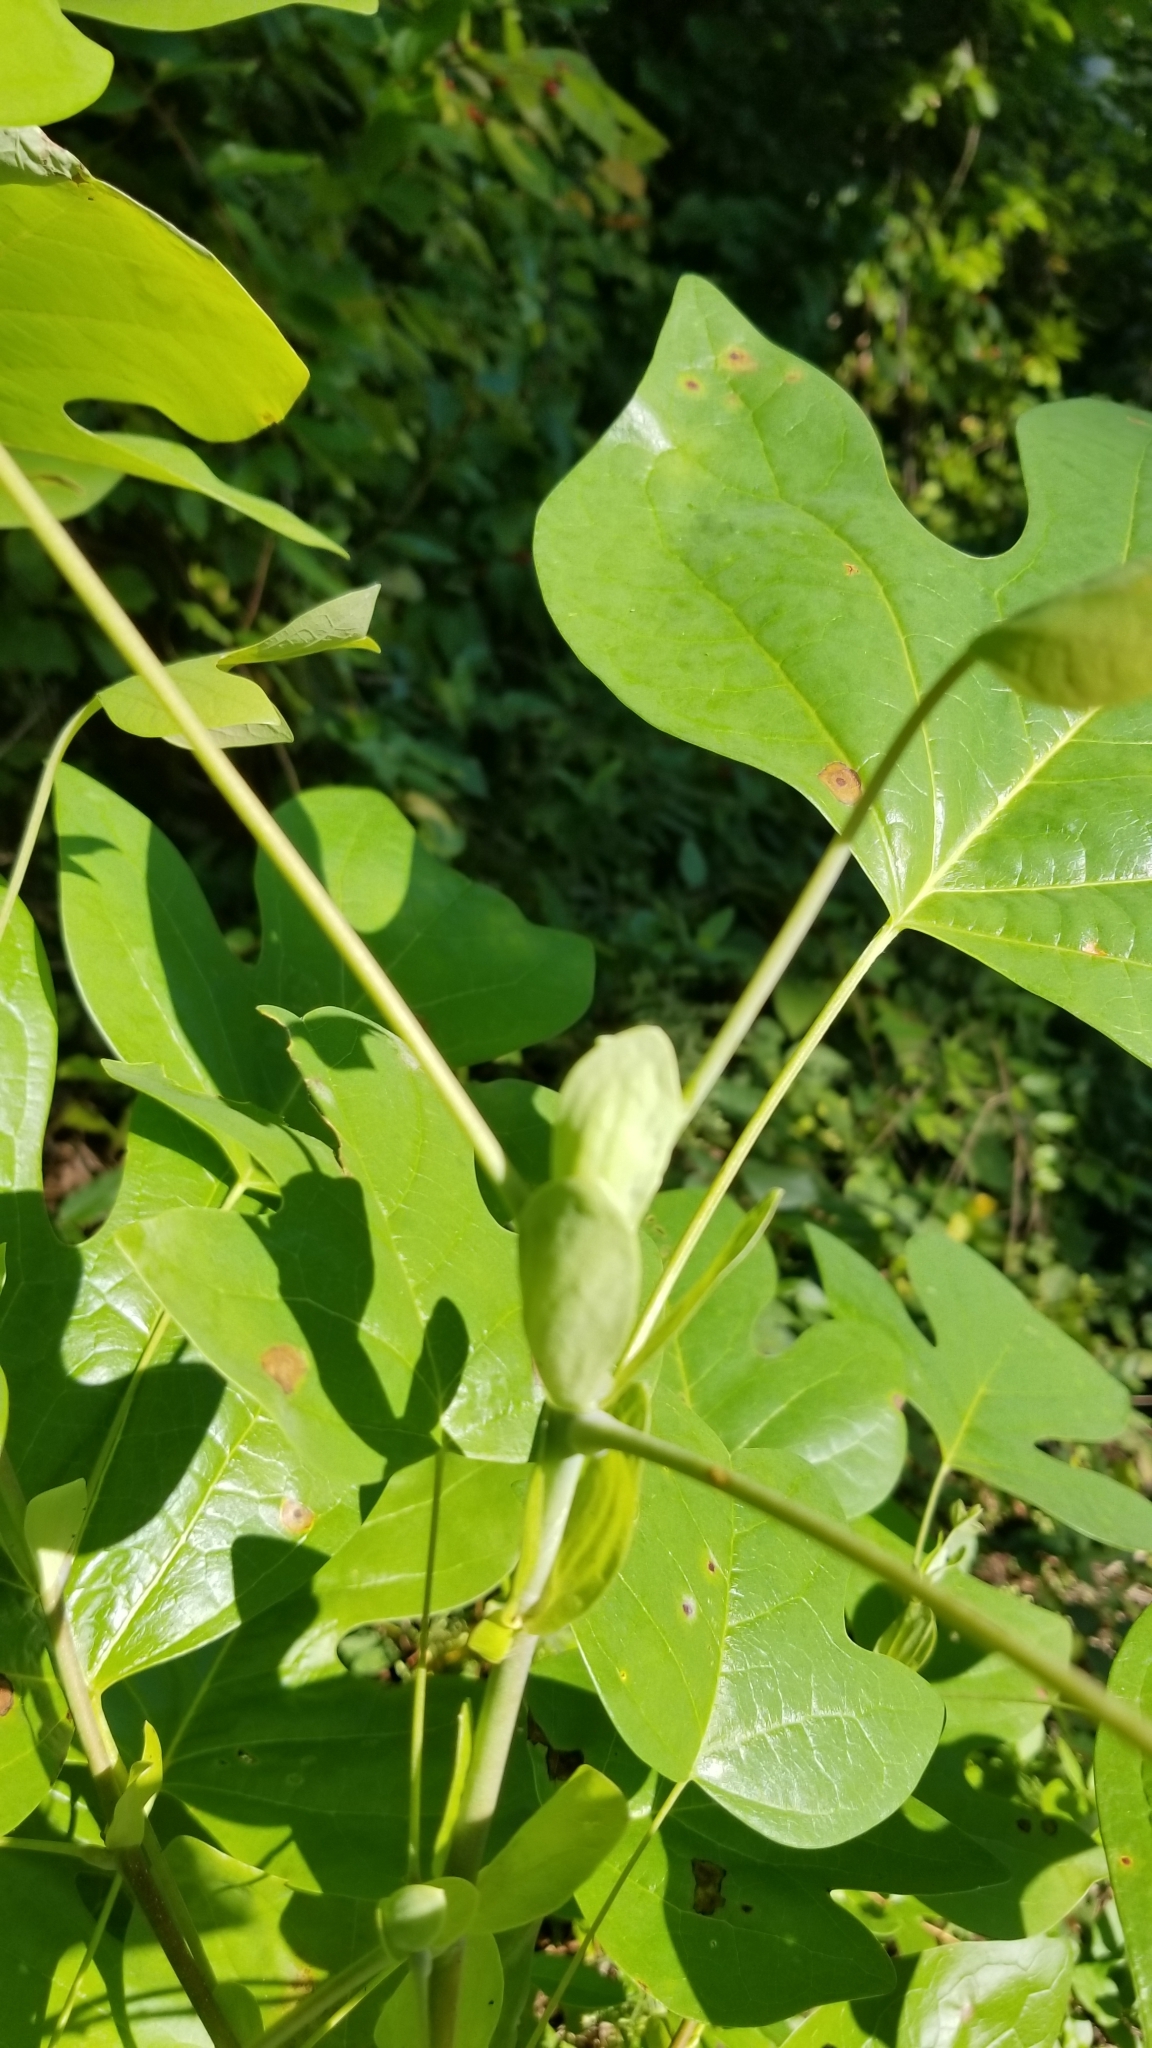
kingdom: Plantae
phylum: Tracheophyta
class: Magnoliopsida
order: Magnoliales
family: Magnoliaceae
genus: Liriodendron
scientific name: Liriodendron tulipifera
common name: Tulip tree
